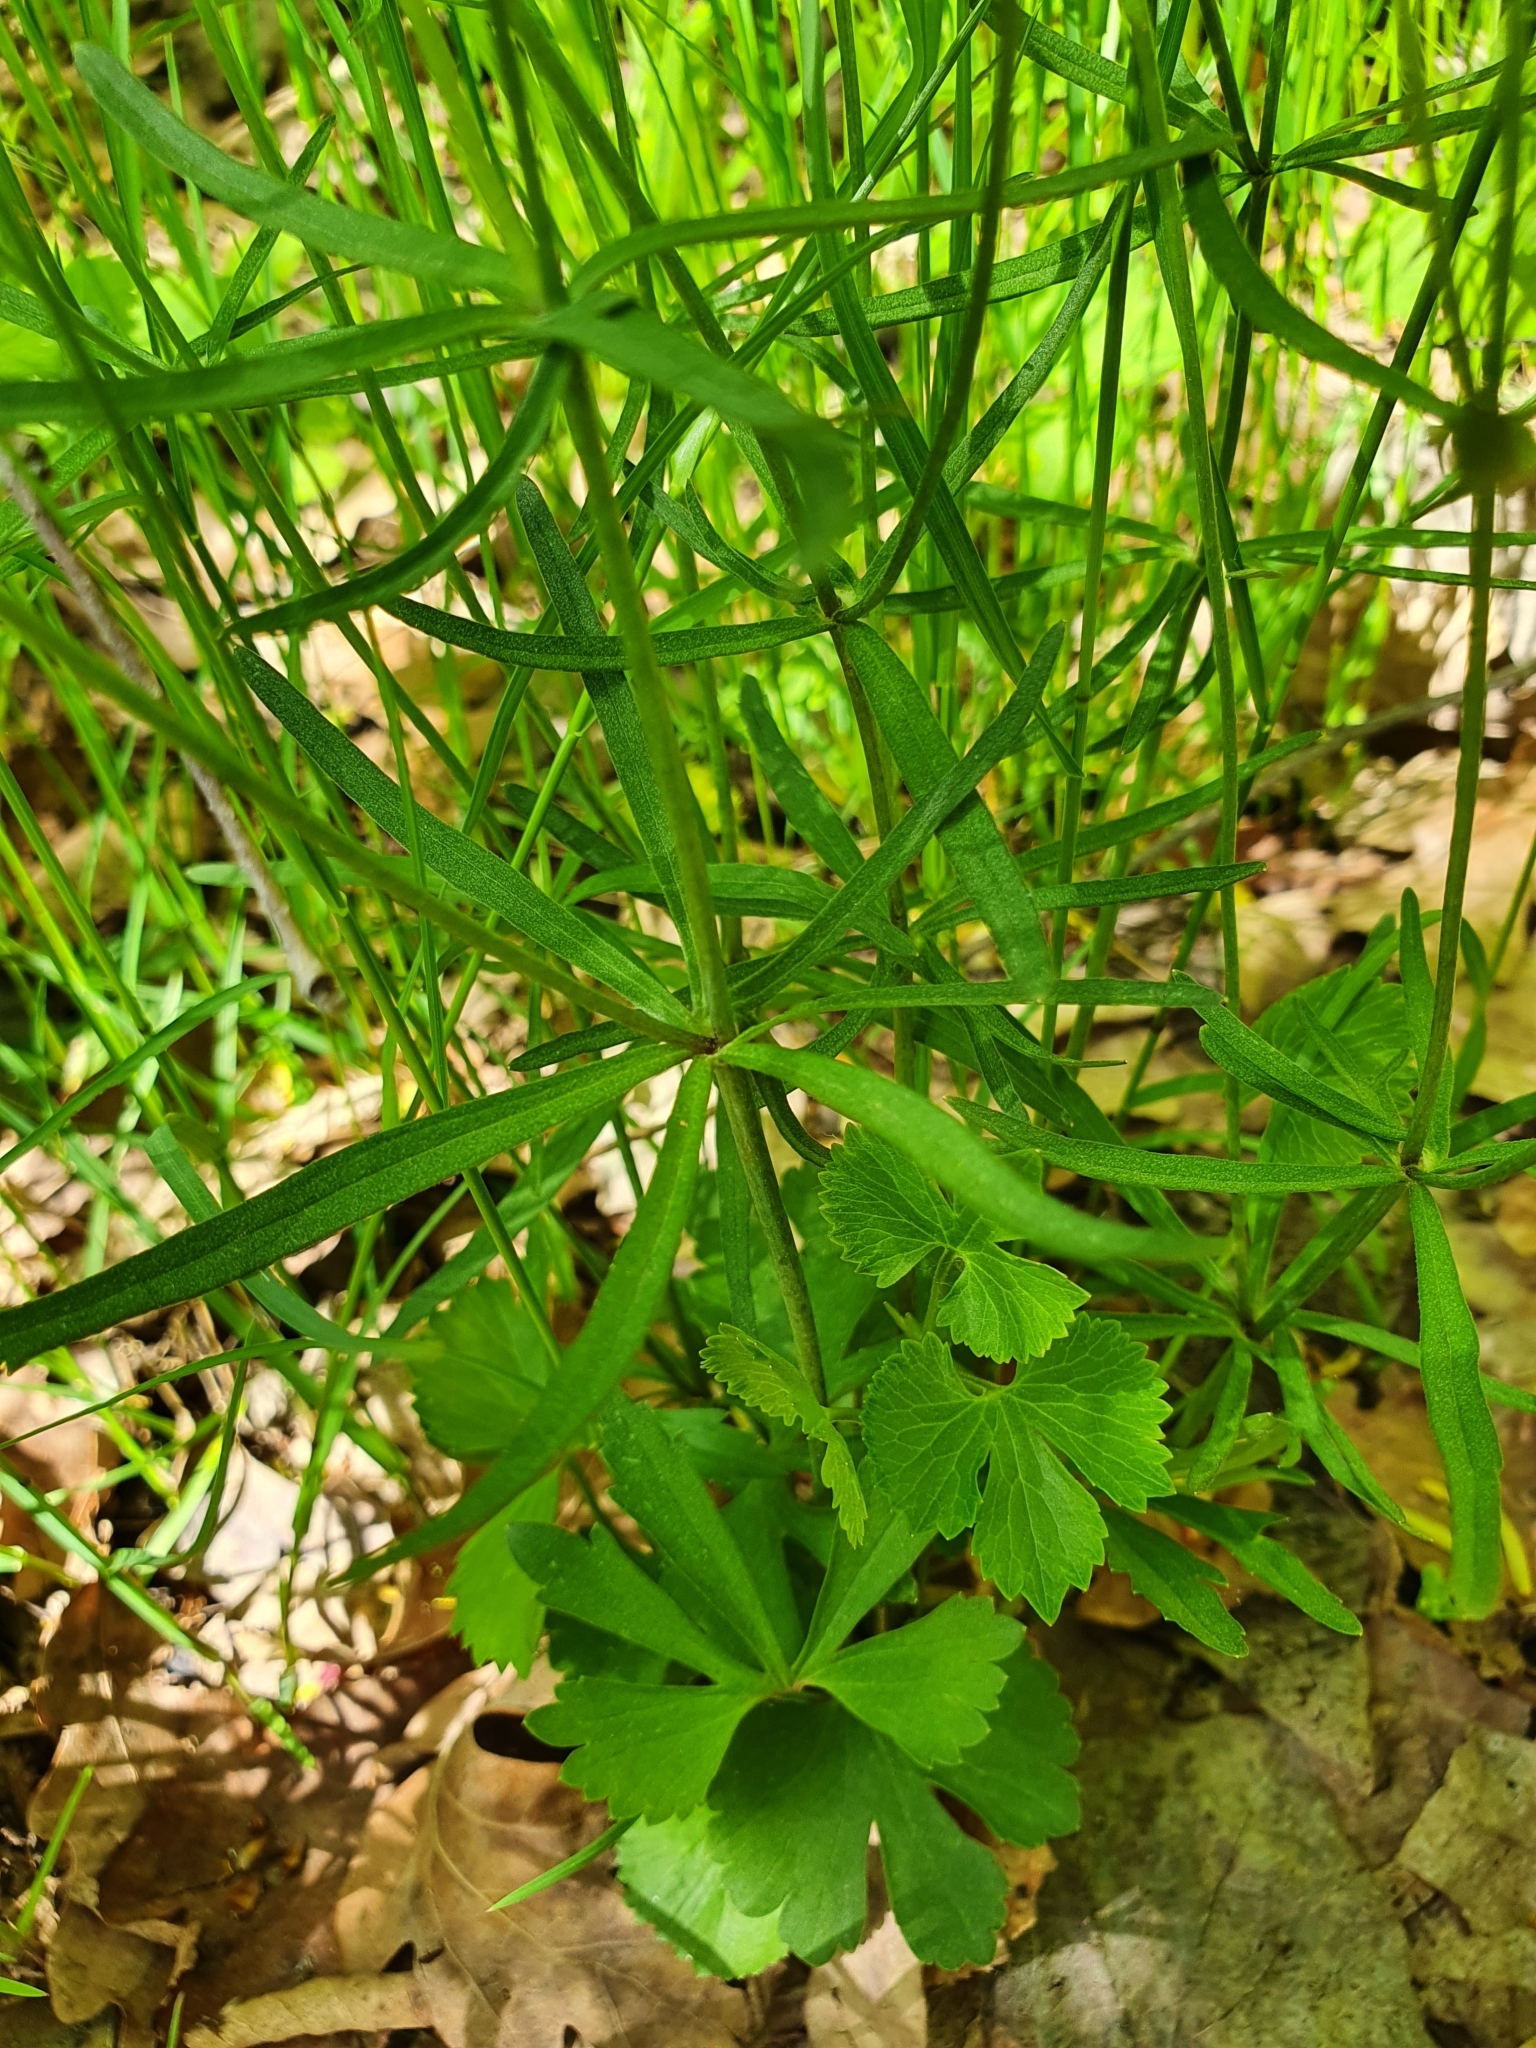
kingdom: Plantae
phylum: Tracheophyta
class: Magnoliopsida
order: Ranunculales
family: Ranunculaceae
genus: Ranunculus
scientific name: Ranunculus auricomus
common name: Goldilocks buttercup
